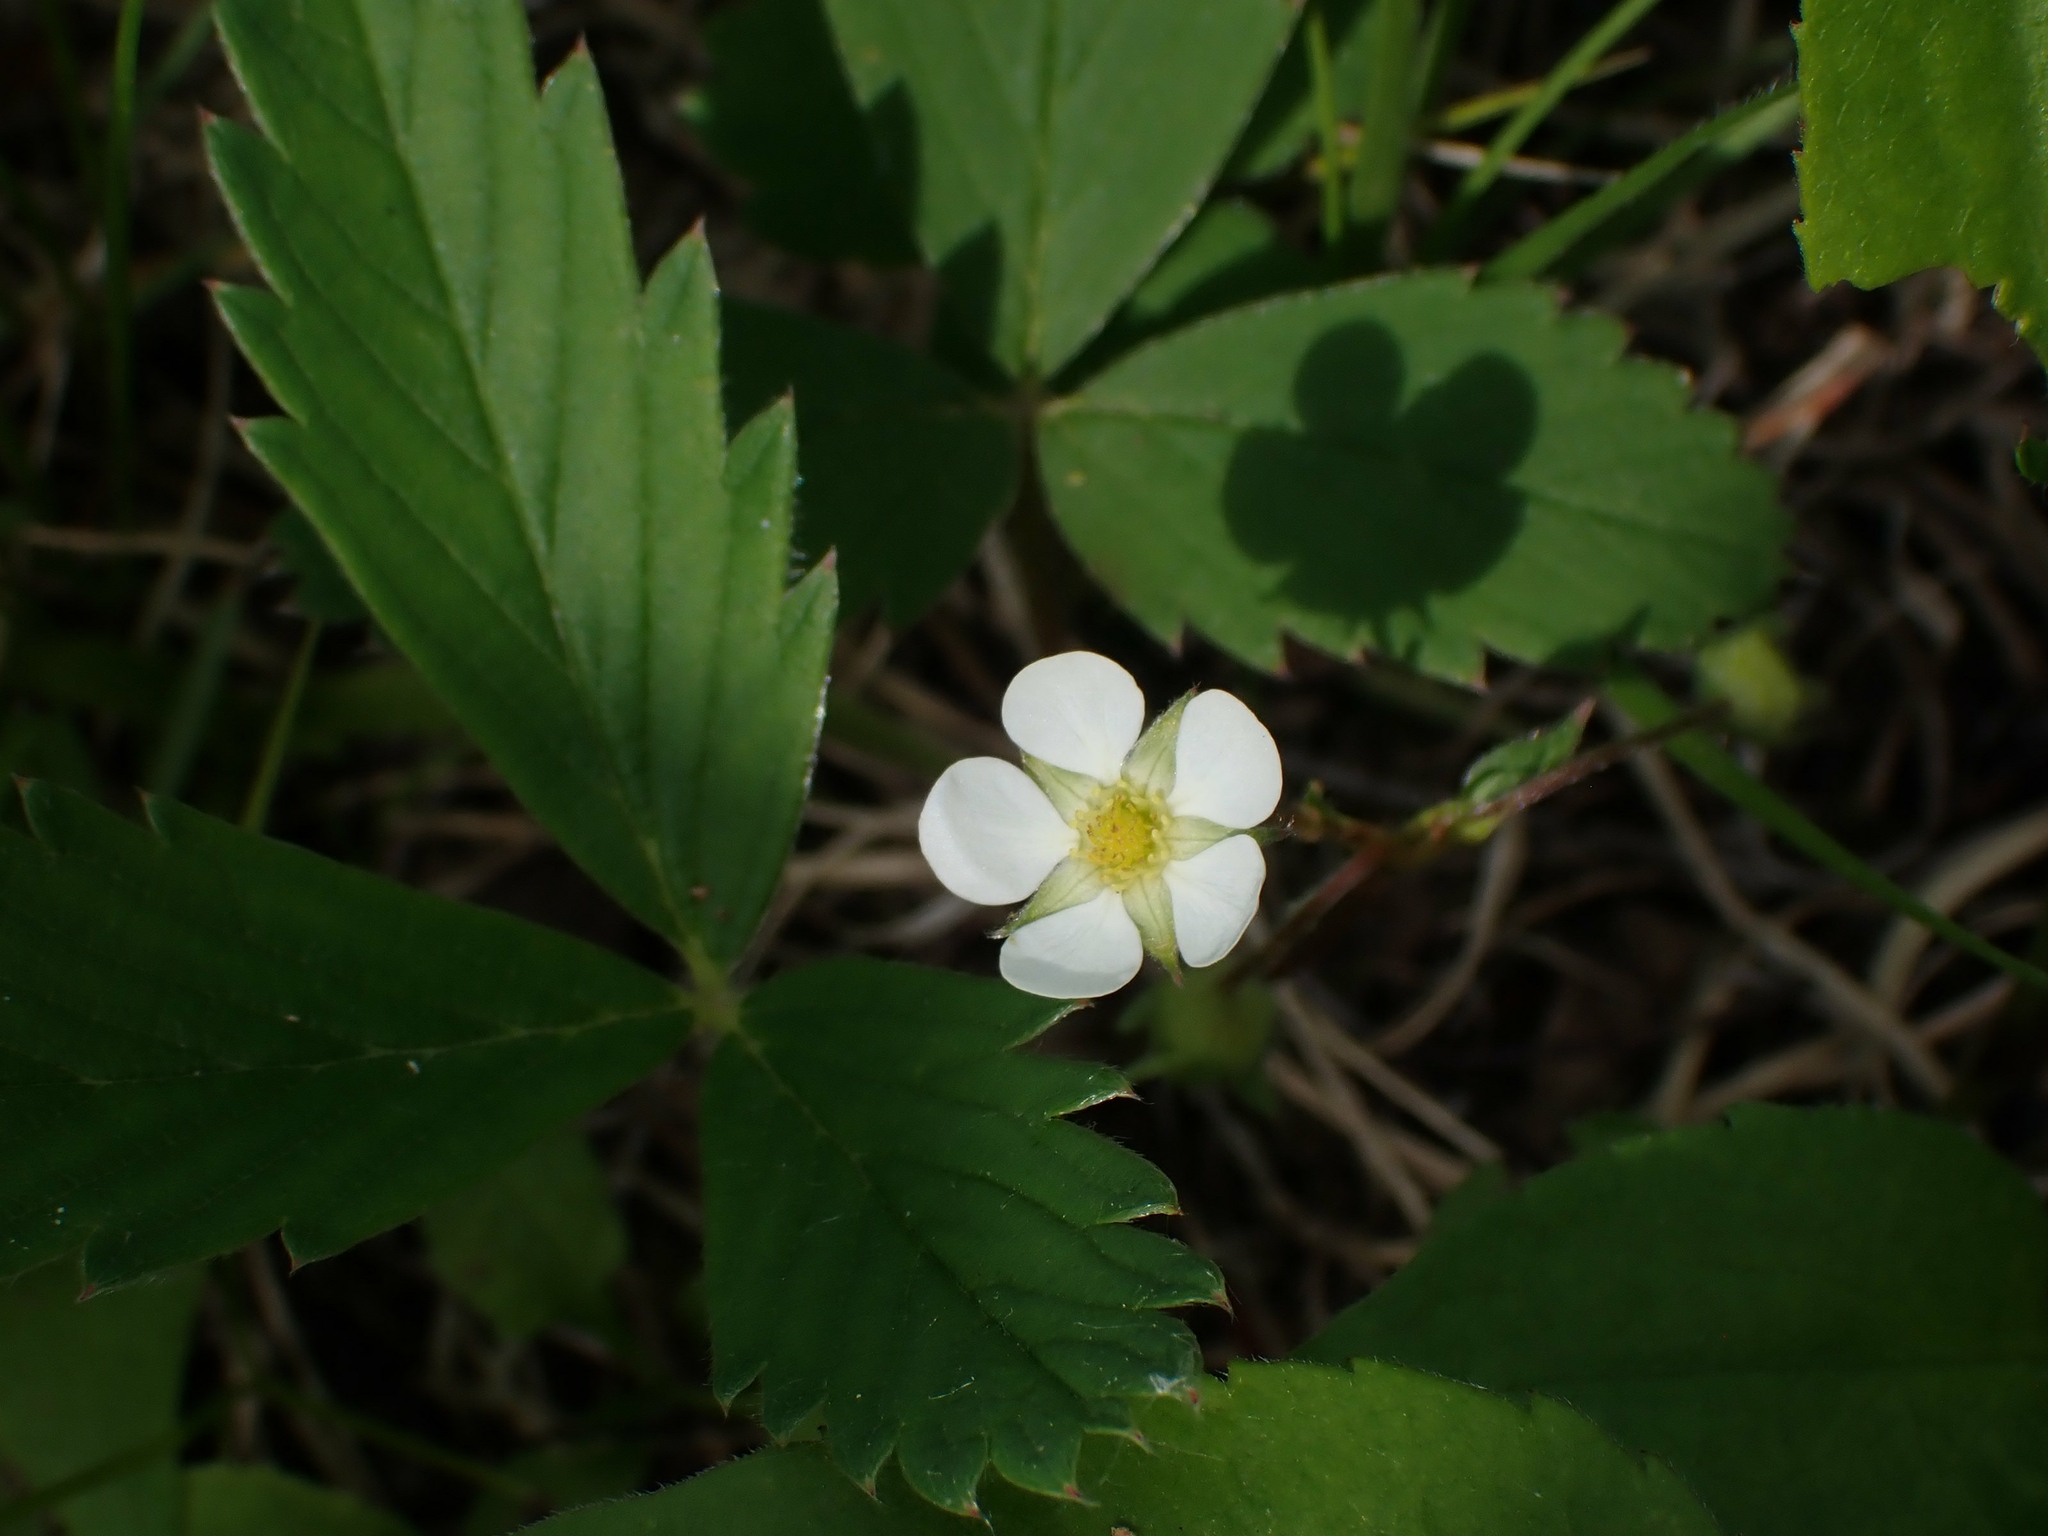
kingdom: Plantae
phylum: Tracheophyta
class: Magnoliopsida
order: Rosales
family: Rosaceae
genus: Fragaria
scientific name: Fragaria virginiana
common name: Thickleaved wild strawberry
